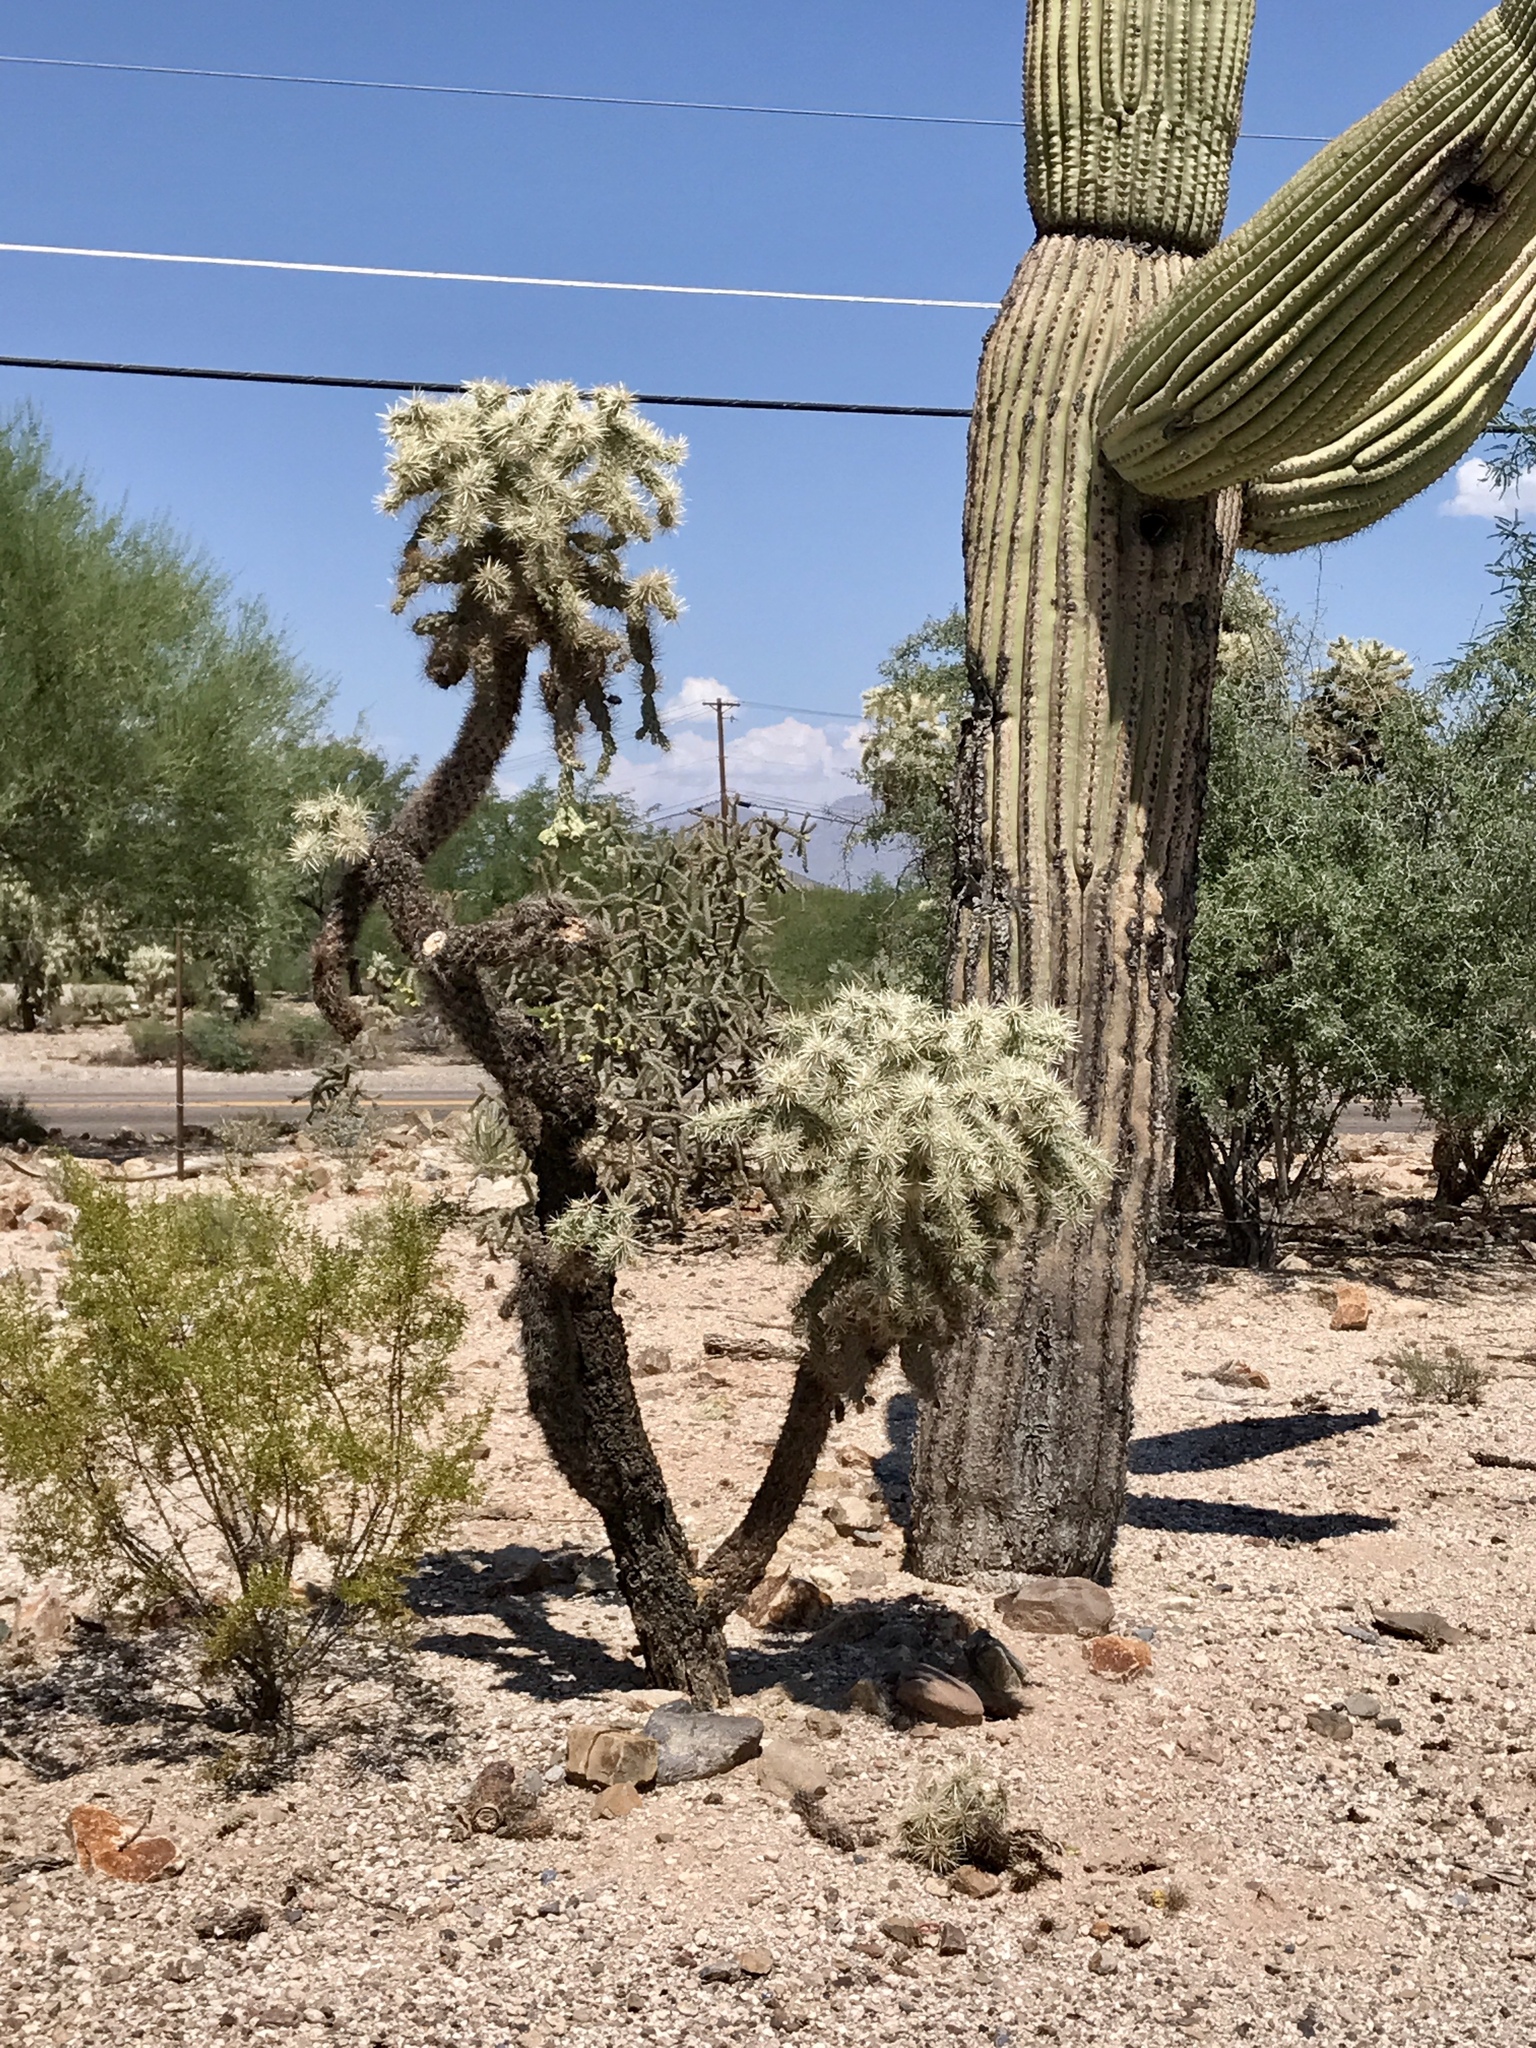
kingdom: Plantae
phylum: Tracheophyta
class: Magnoliopsida
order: Caryophyllales
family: Cactaceae
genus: Cylindropuntia
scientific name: Cylindropuntia fulgida
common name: Jumping cholla
